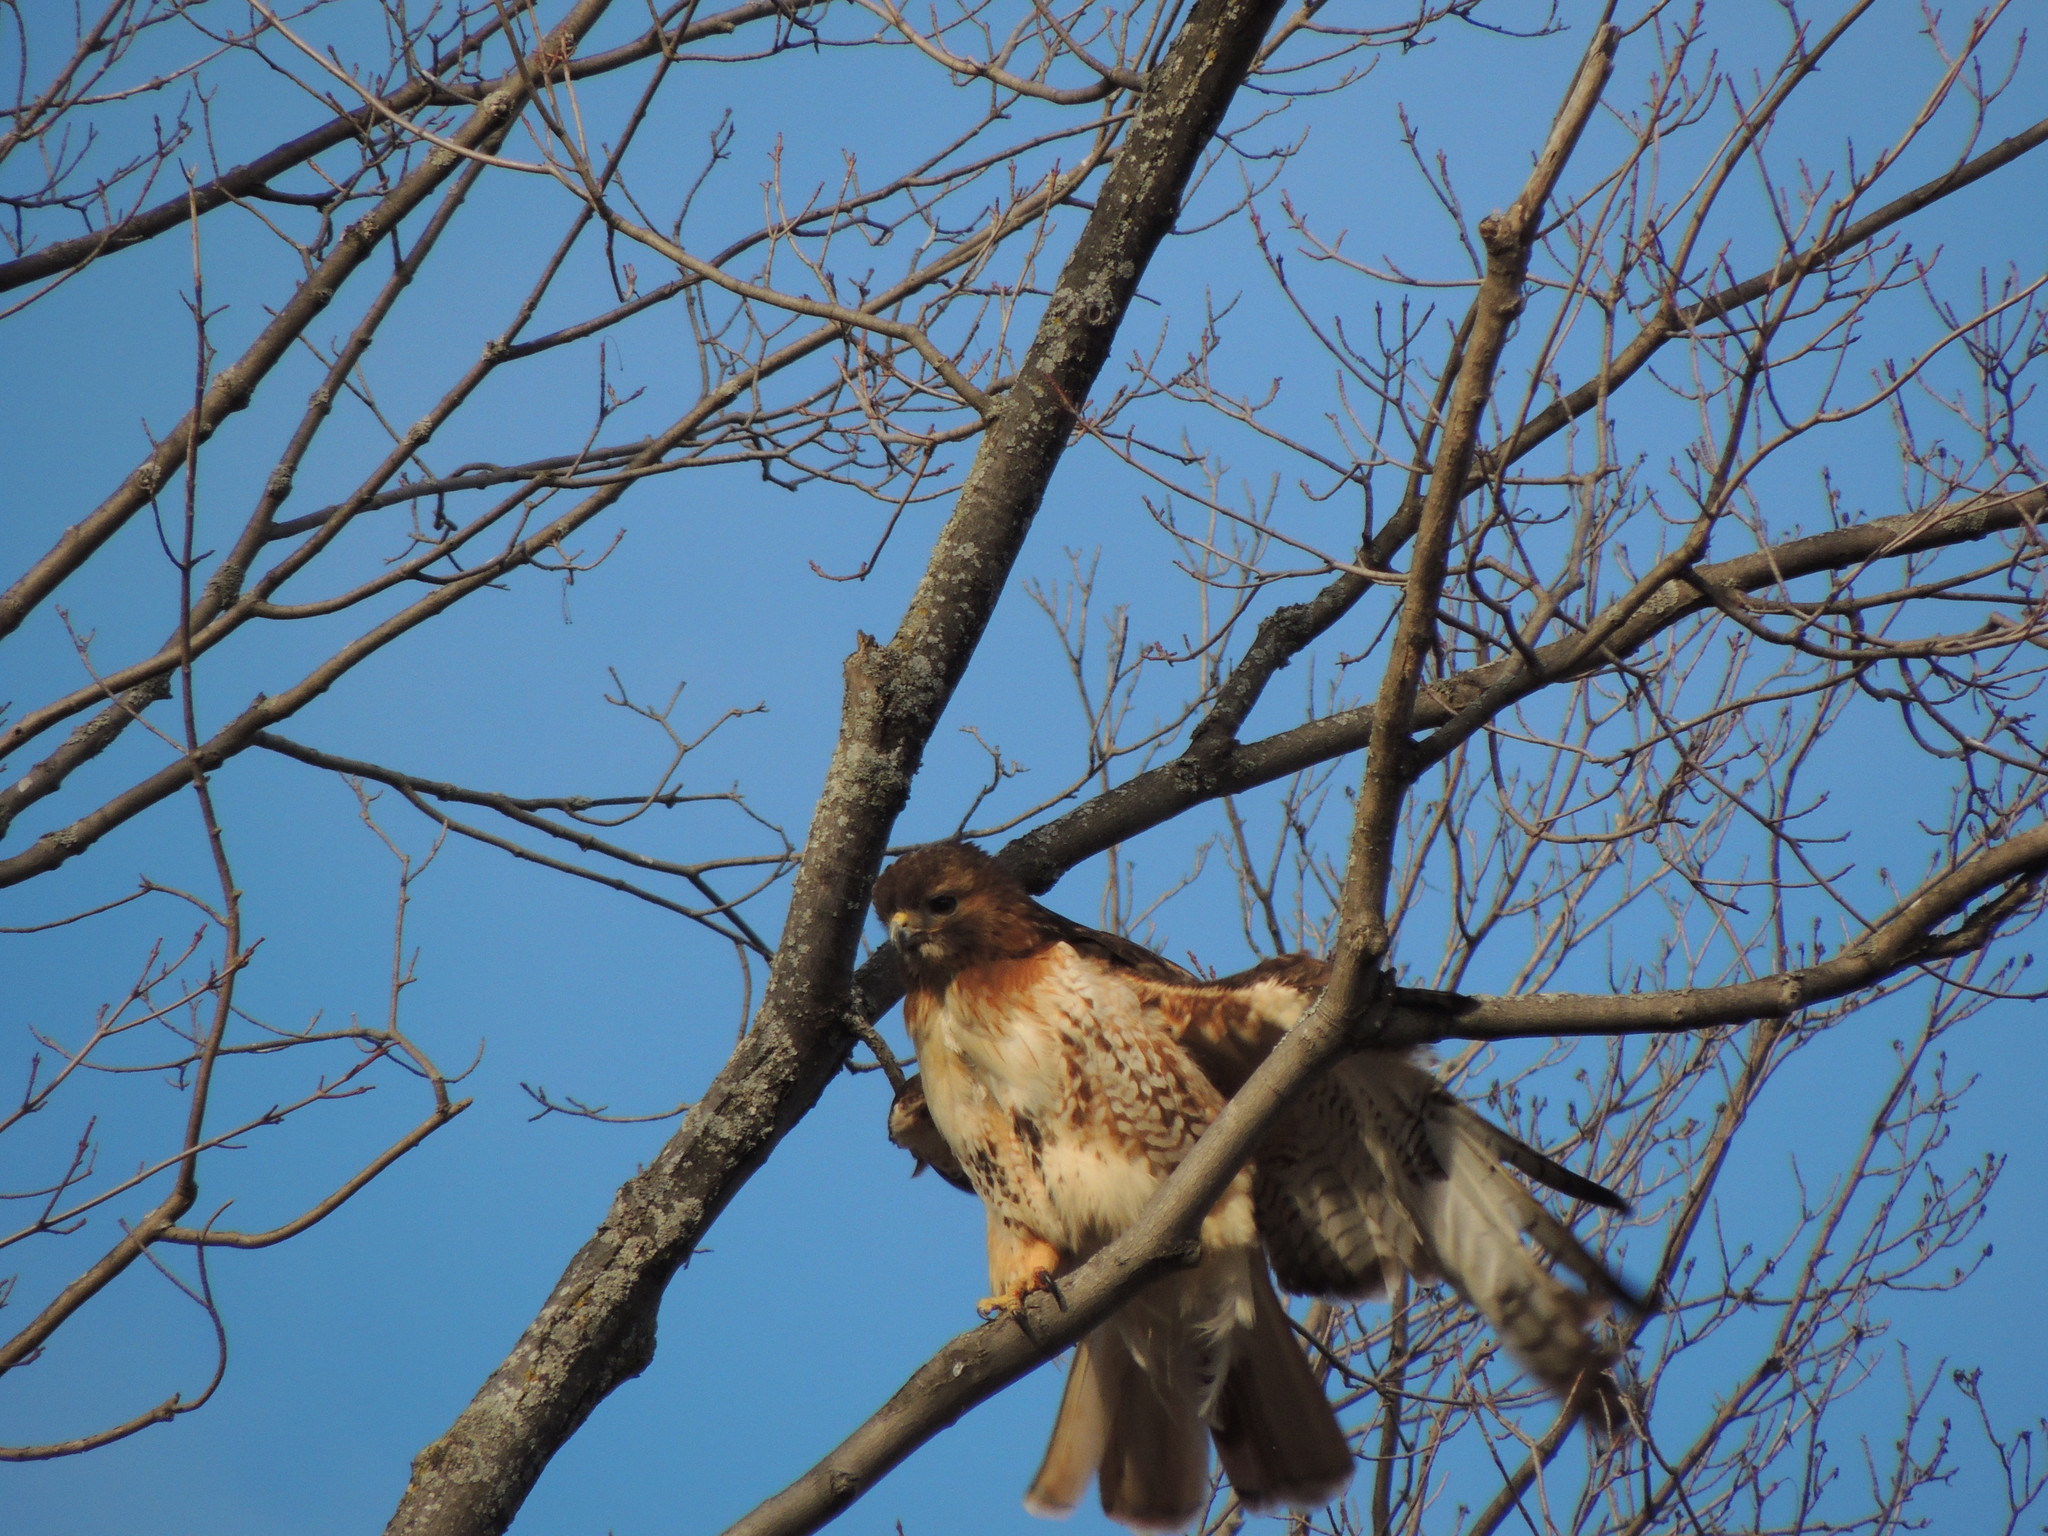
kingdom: Animalia
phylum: Chordata
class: Aves
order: Accipitriformes
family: Accipitridae
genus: Buteo
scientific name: Buteo jamaicensis
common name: Red-tailed hawk
